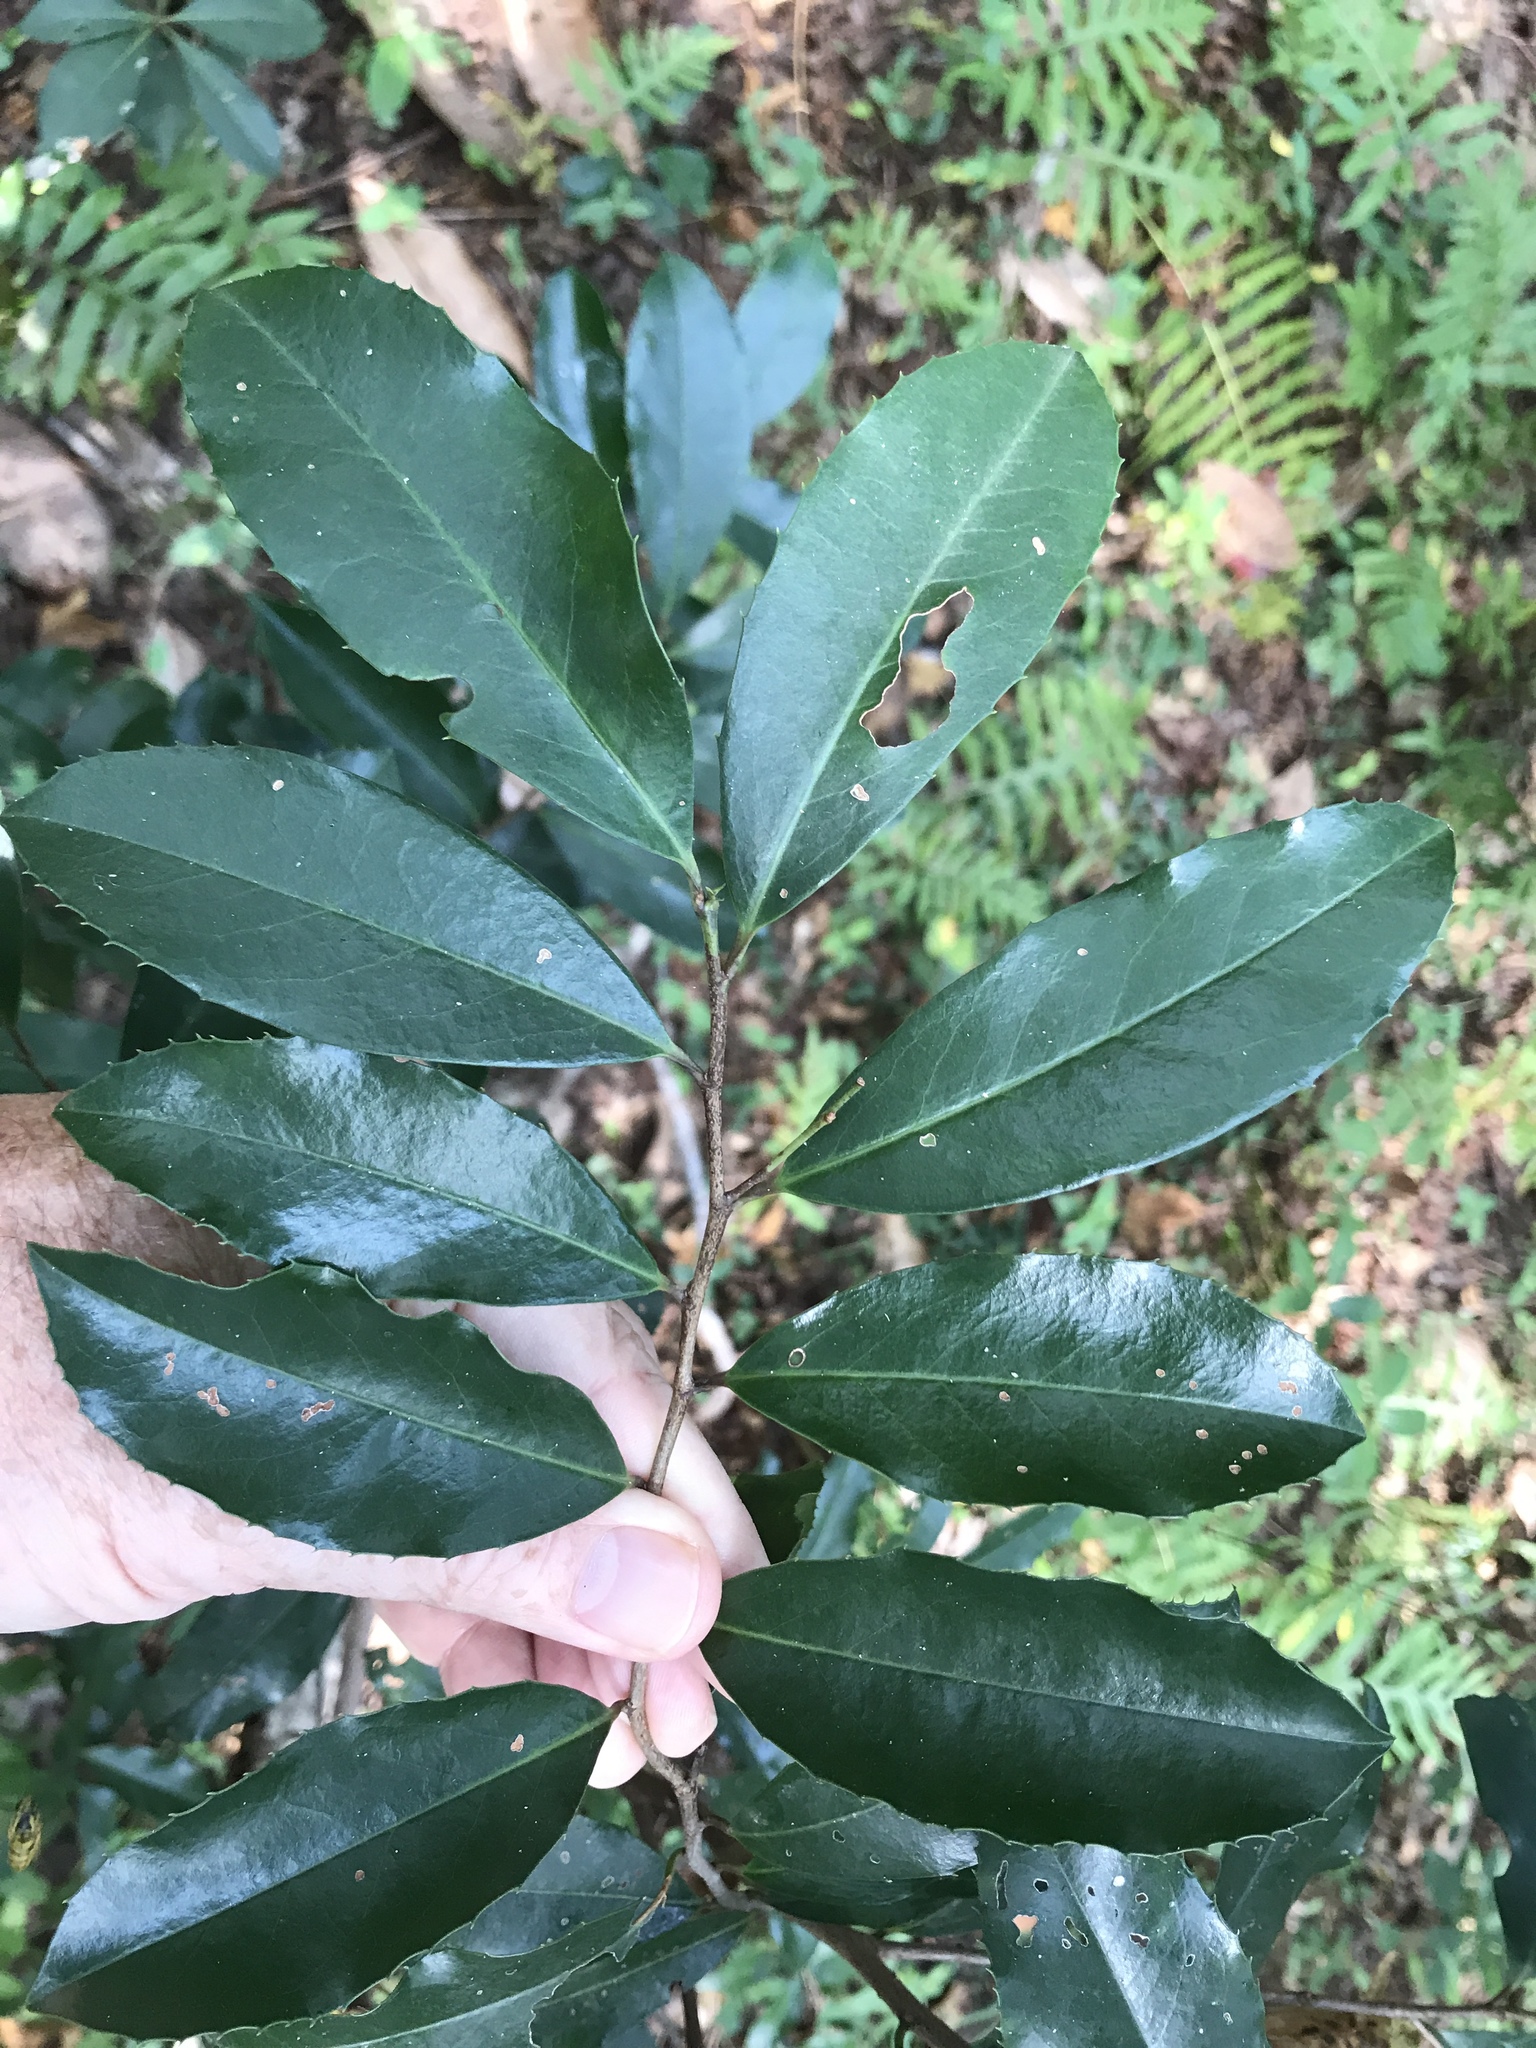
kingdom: Plantae
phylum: Tracheophyta
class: Magnoliopsida
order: Rosales
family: Rosaceae
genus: Prunus
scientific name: Prunus caroliniana
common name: Carolina laurel cherry
